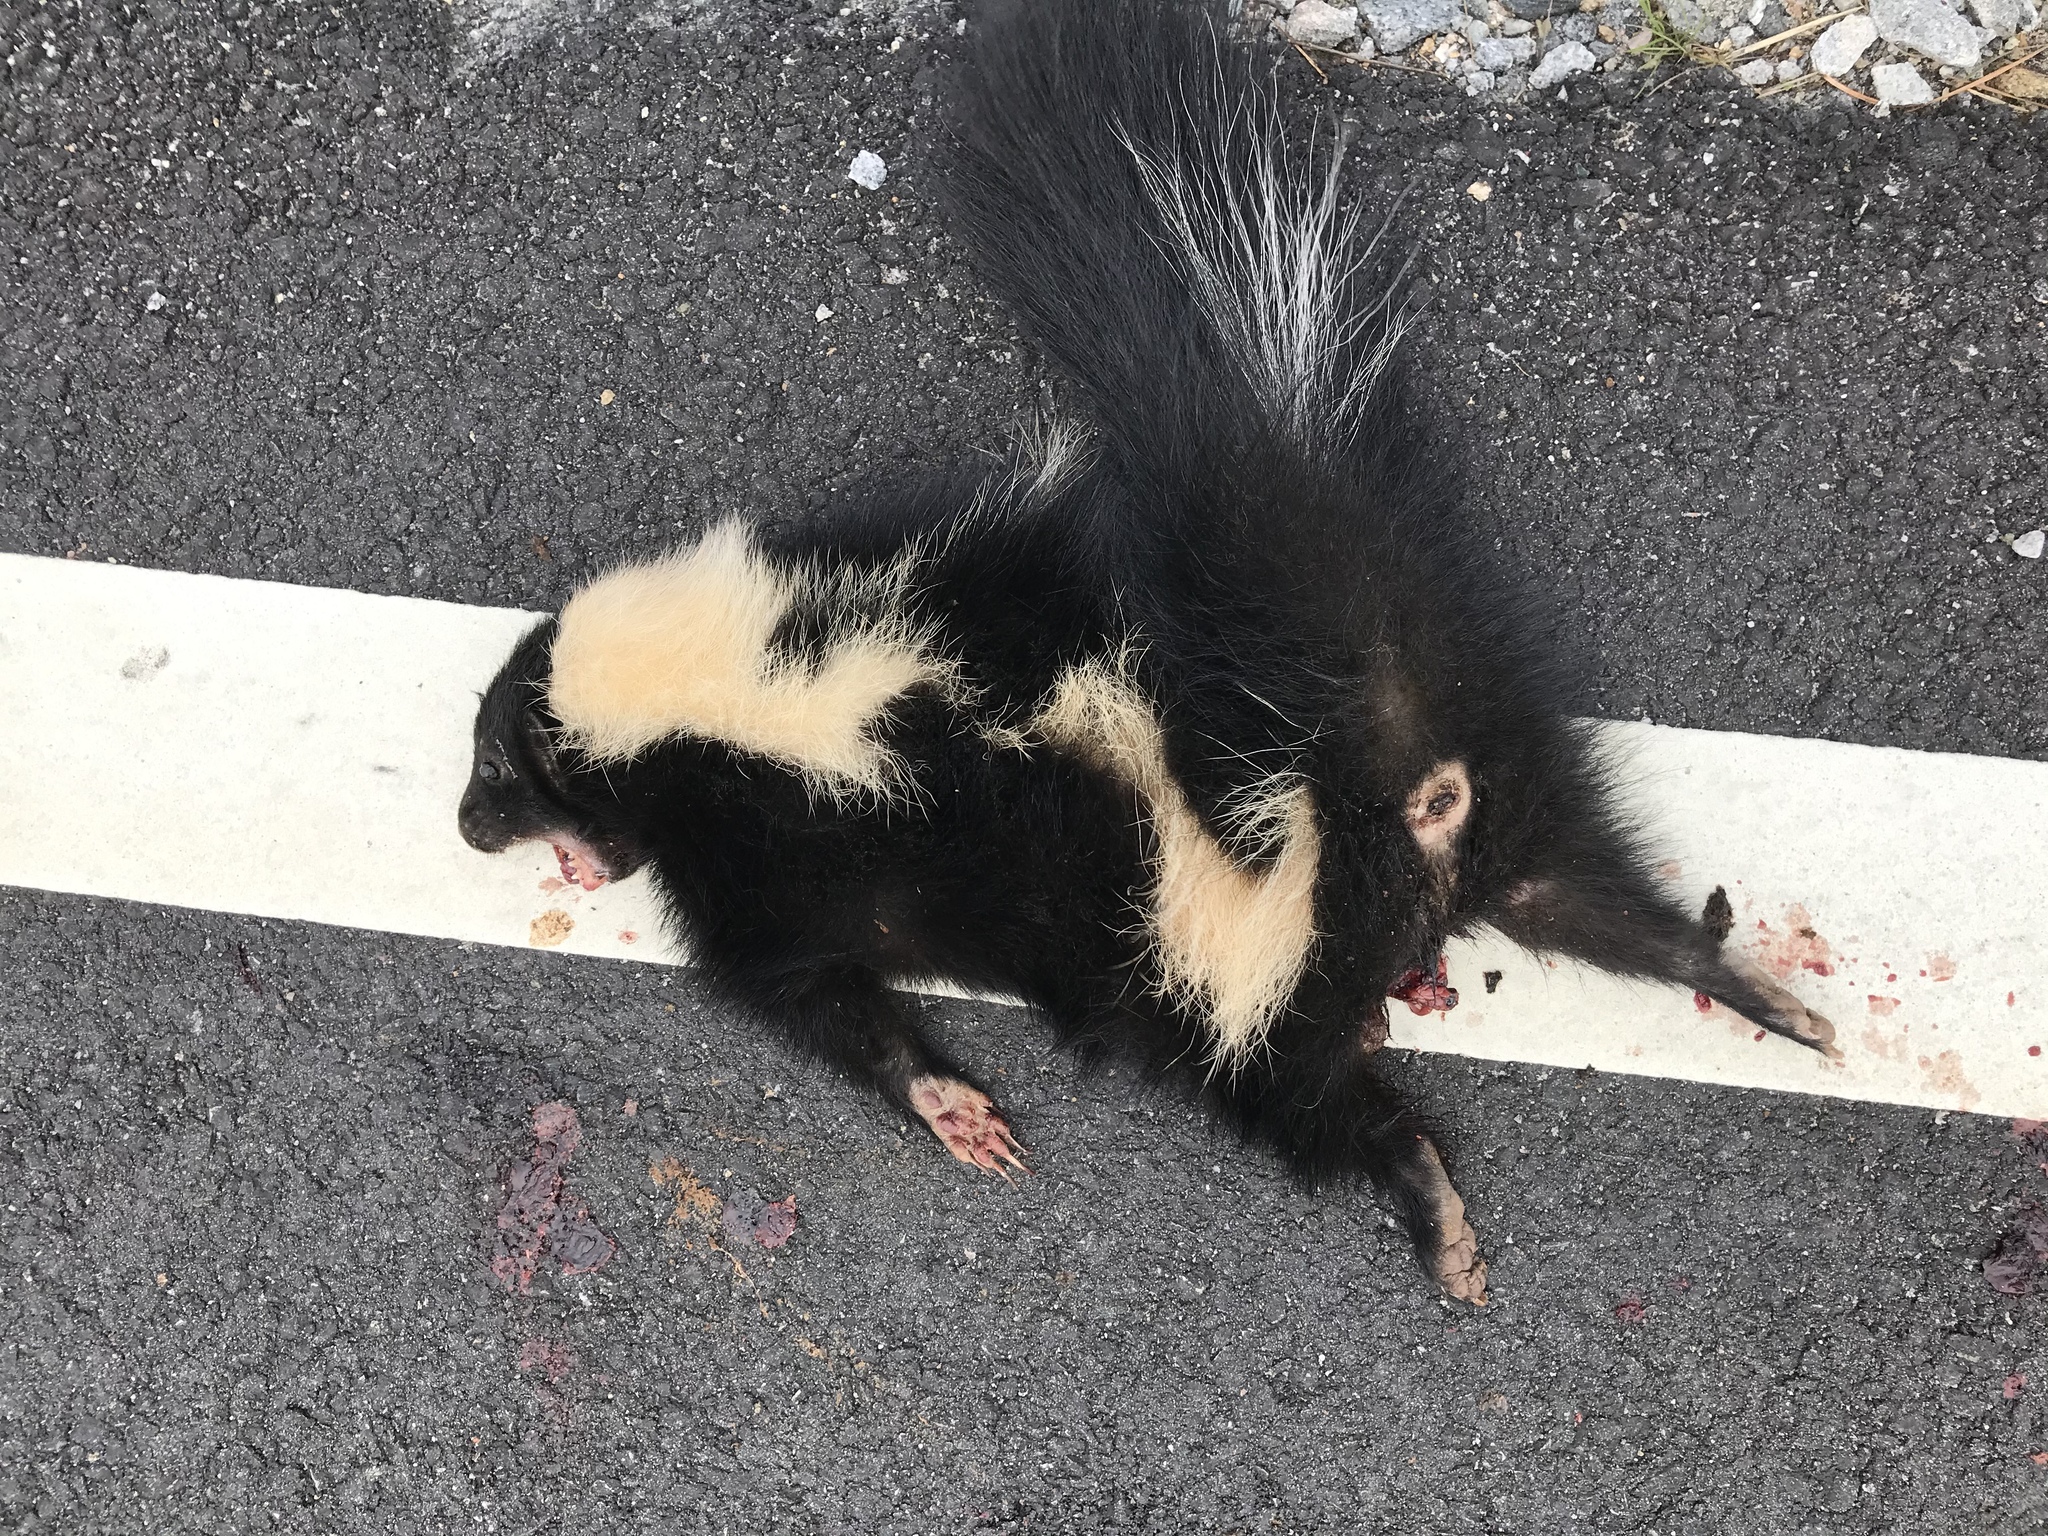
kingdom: Animalia
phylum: Chordata
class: Mammalia
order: Carnivora
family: Mephitidae
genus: Mephitis
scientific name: Mephitis mephitis
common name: Striped skunk
